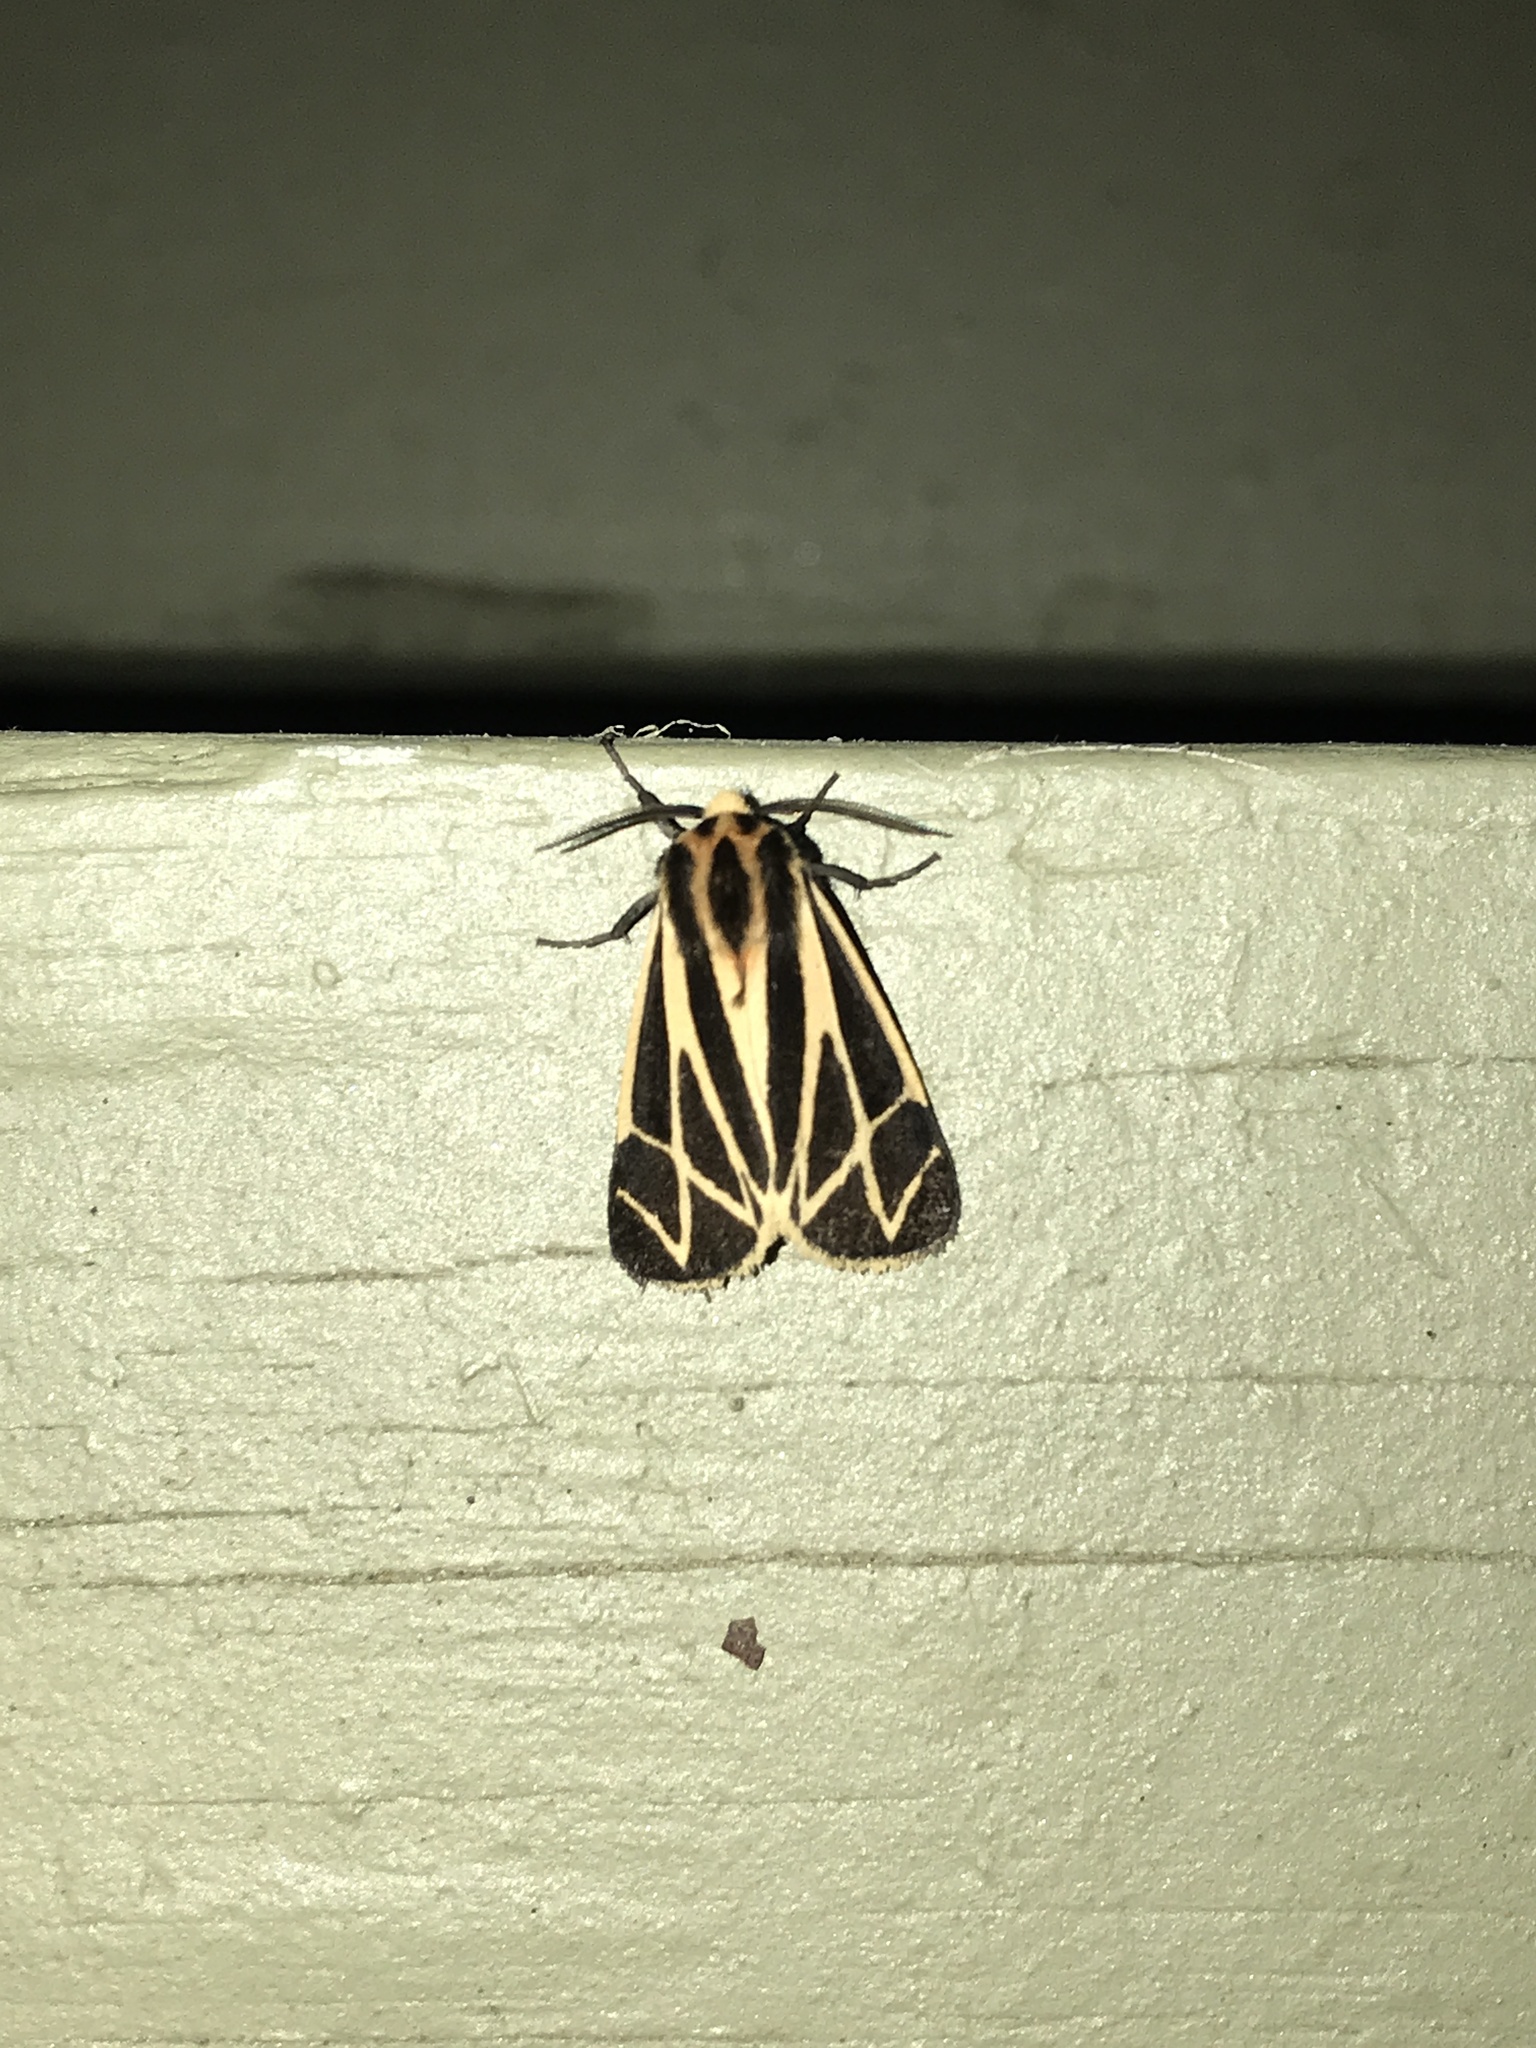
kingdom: Animalia
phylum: Arthropoda
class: Insecta
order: Lepidoptera
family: Erebidae
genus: Apantesis
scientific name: Apantesis phalerata
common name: Harnessed tiger moth
